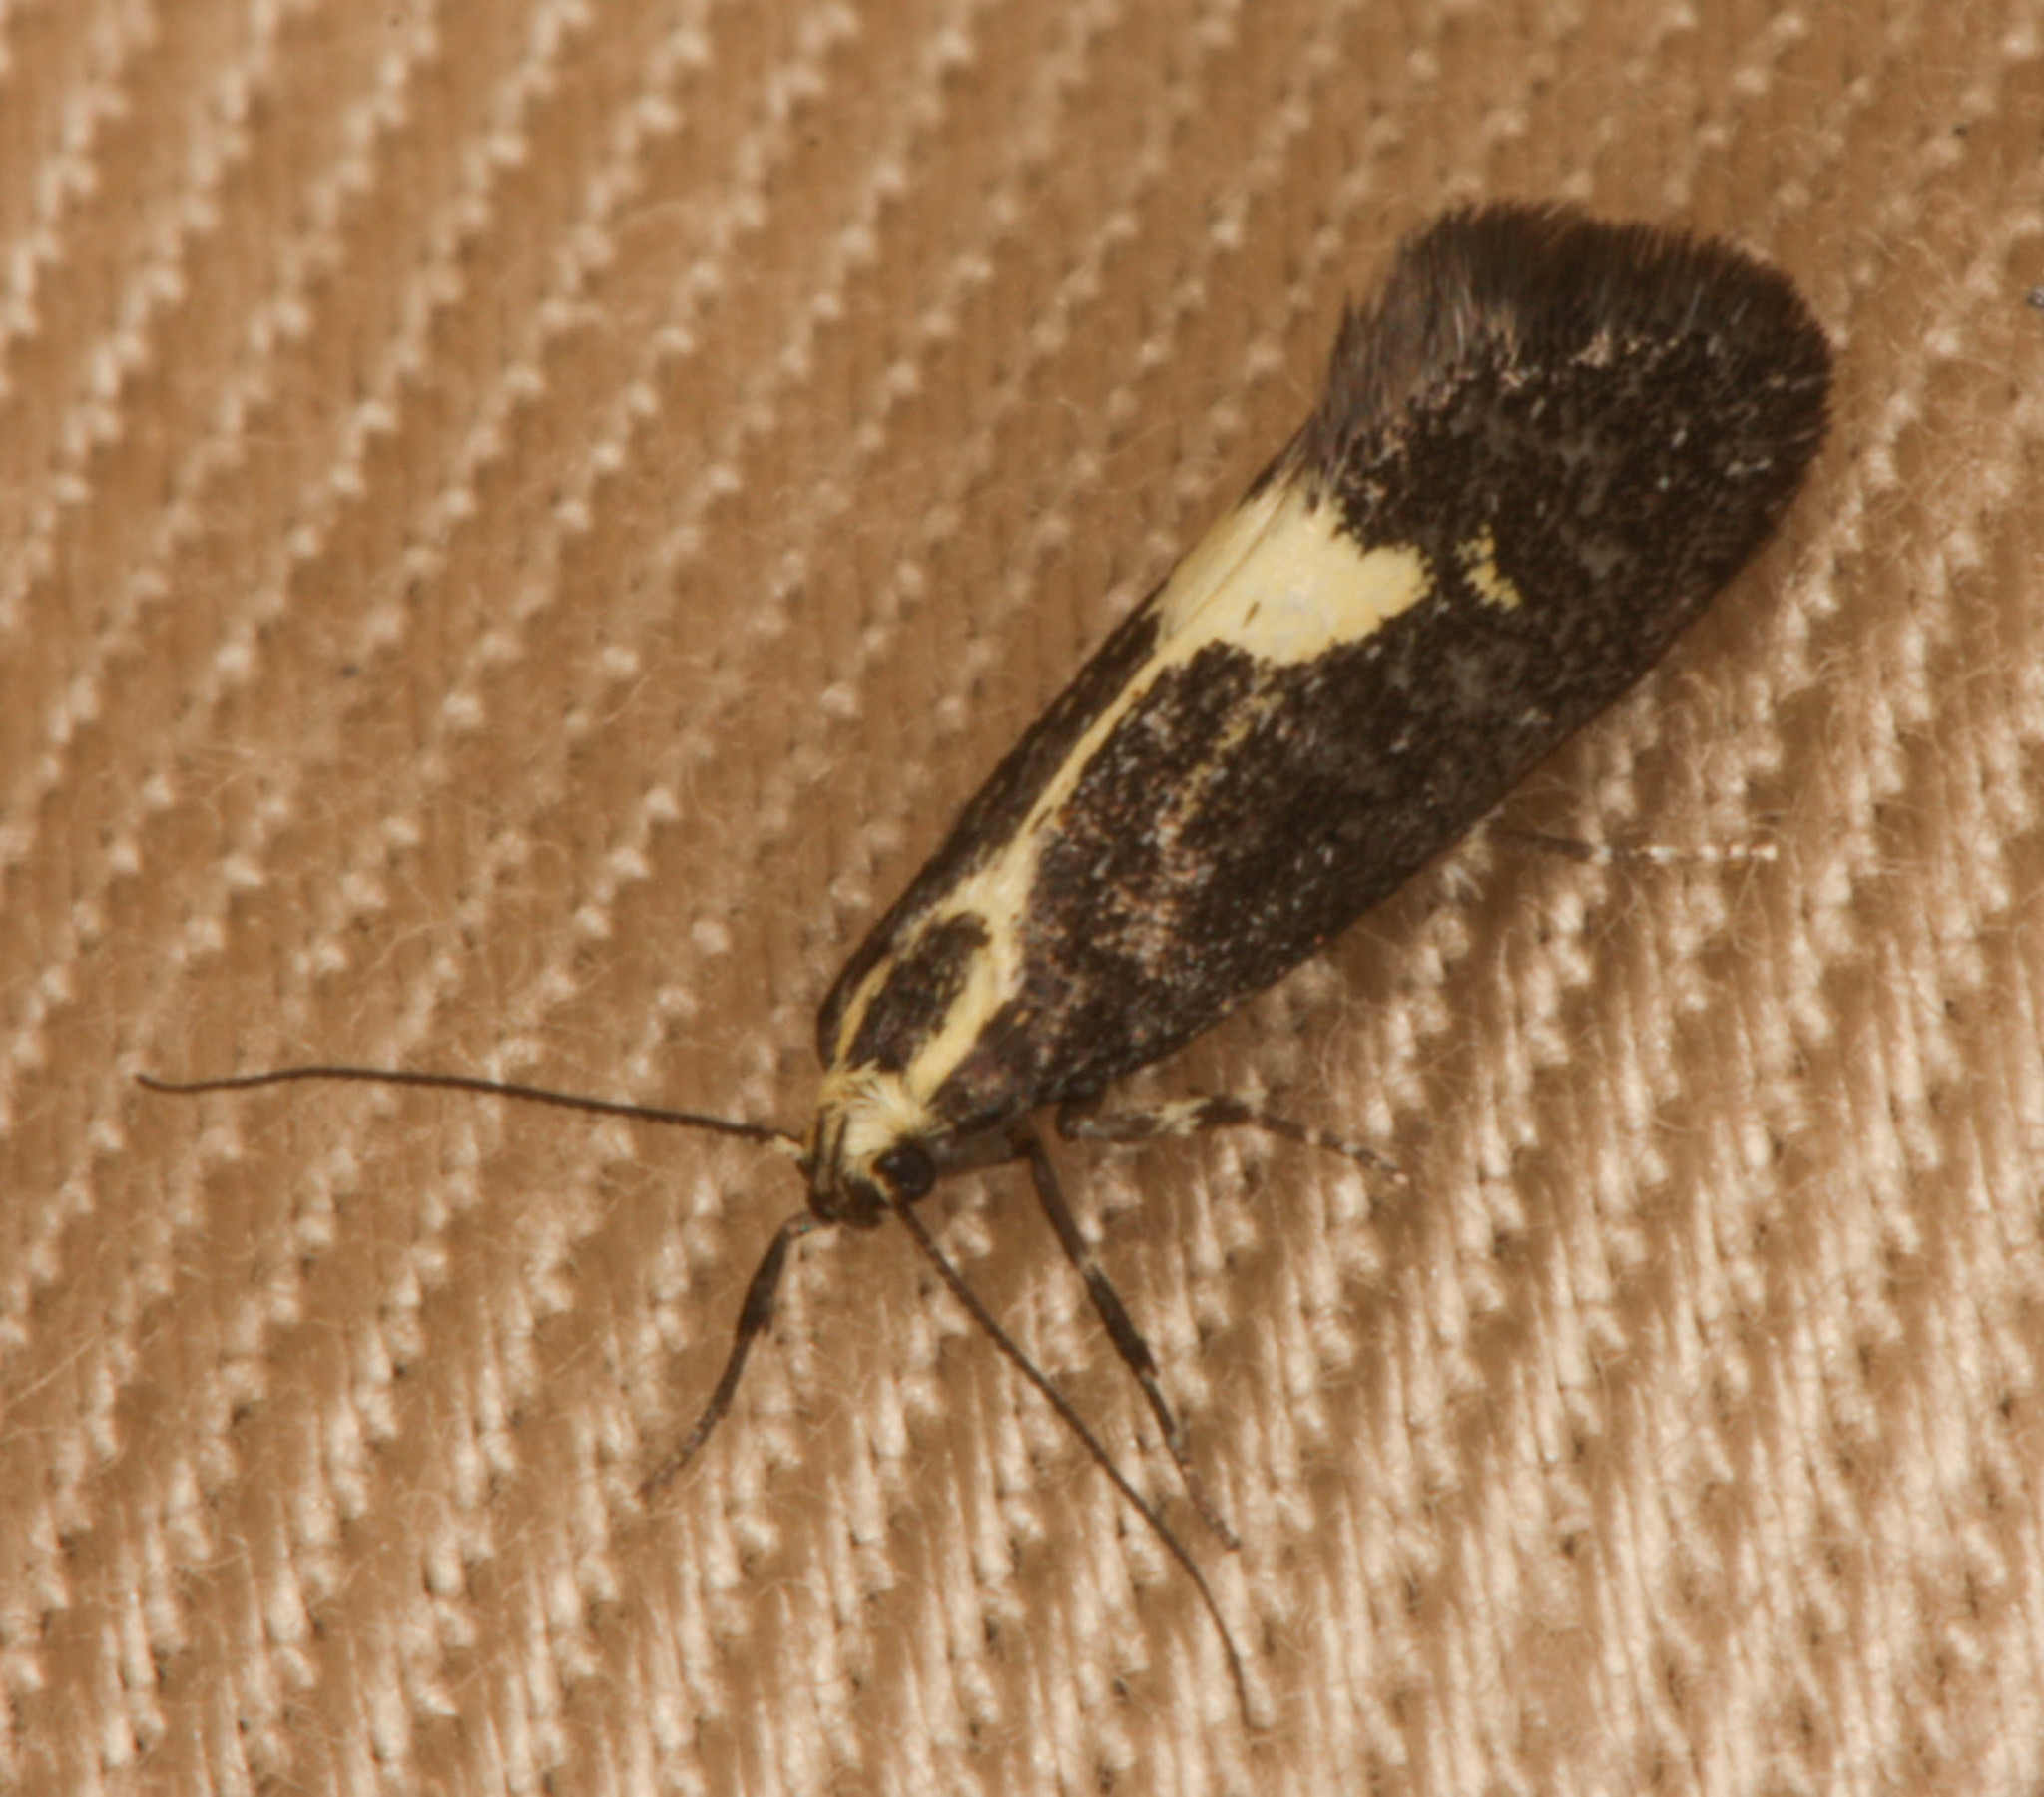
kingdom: Animalia
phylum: Arthropoda
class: Insecta
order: Lepidoptera
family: Oecophoridae
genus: Polix
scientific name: Polix coloradella
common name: Skunk moth
